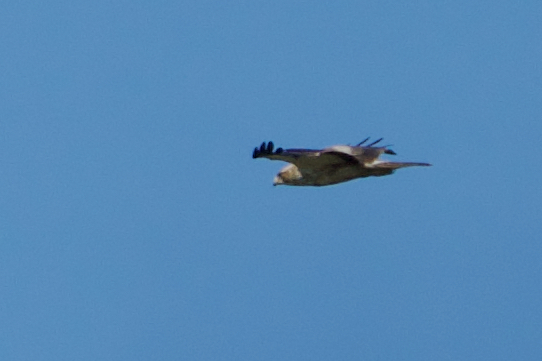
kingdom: Animalia
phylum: Chordata
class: Aves
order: Accipitriformes
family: Accipitridae
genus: Hieraaetus
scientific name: Hieraaetus pennatus
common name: Booted eagle
